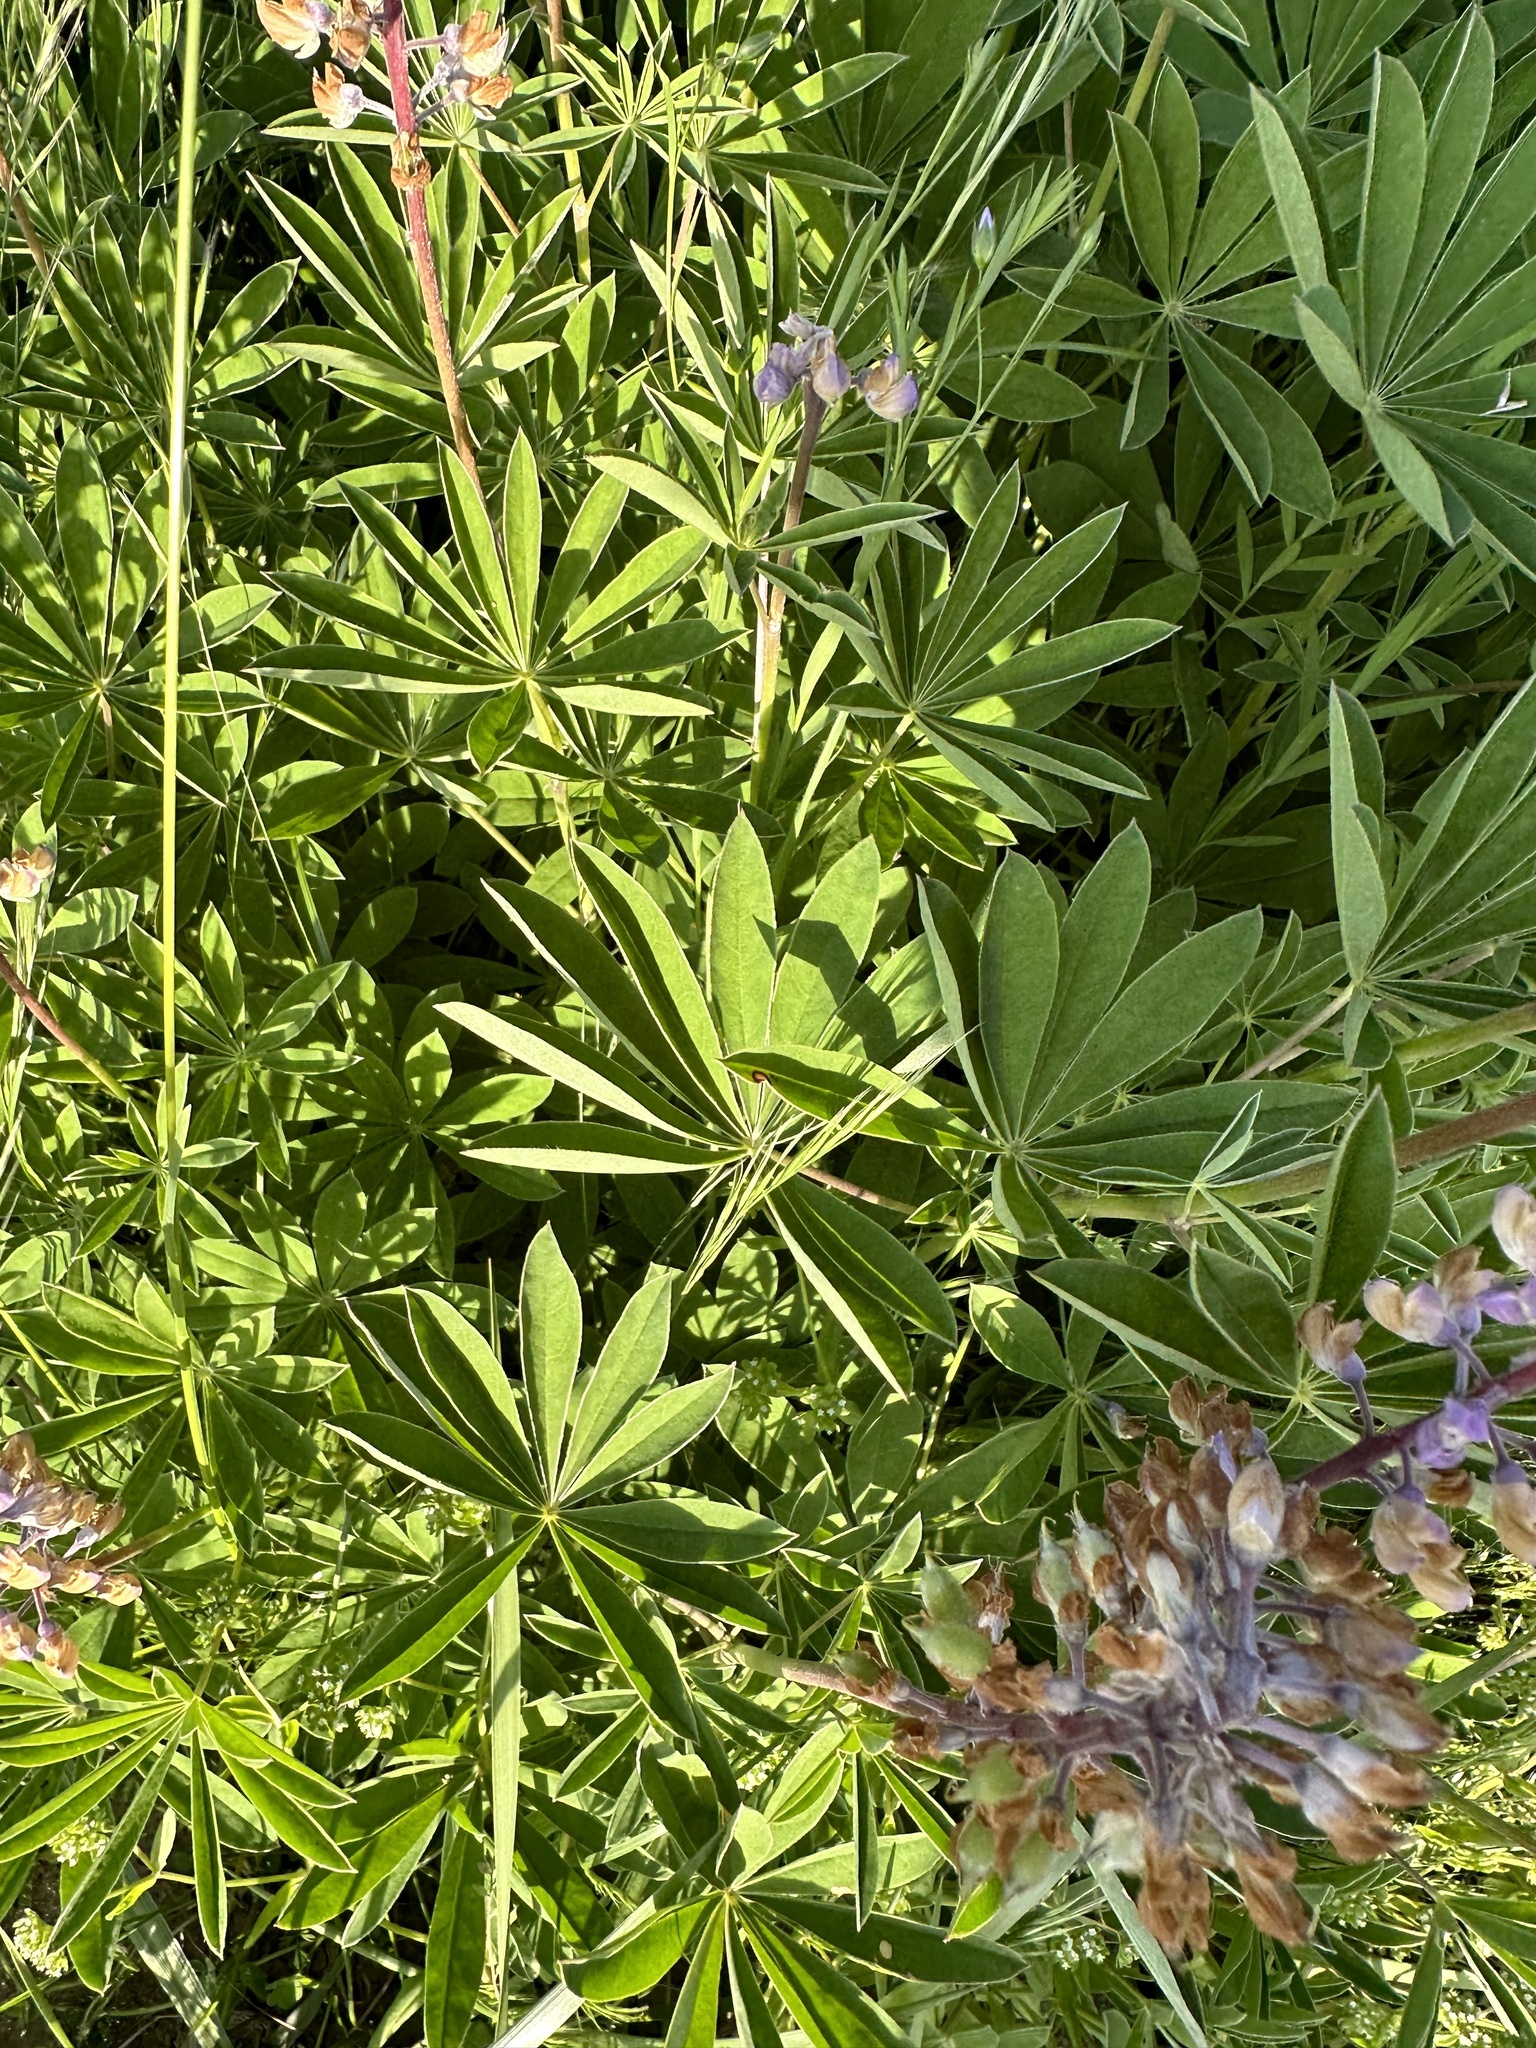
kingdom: Plantae
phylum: Tracheophyta
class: Magnoliopsida
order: Fabales
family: Fabaceae
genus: Lupinus
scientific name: Lupinus oreganus
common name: Kincaid's lupine
